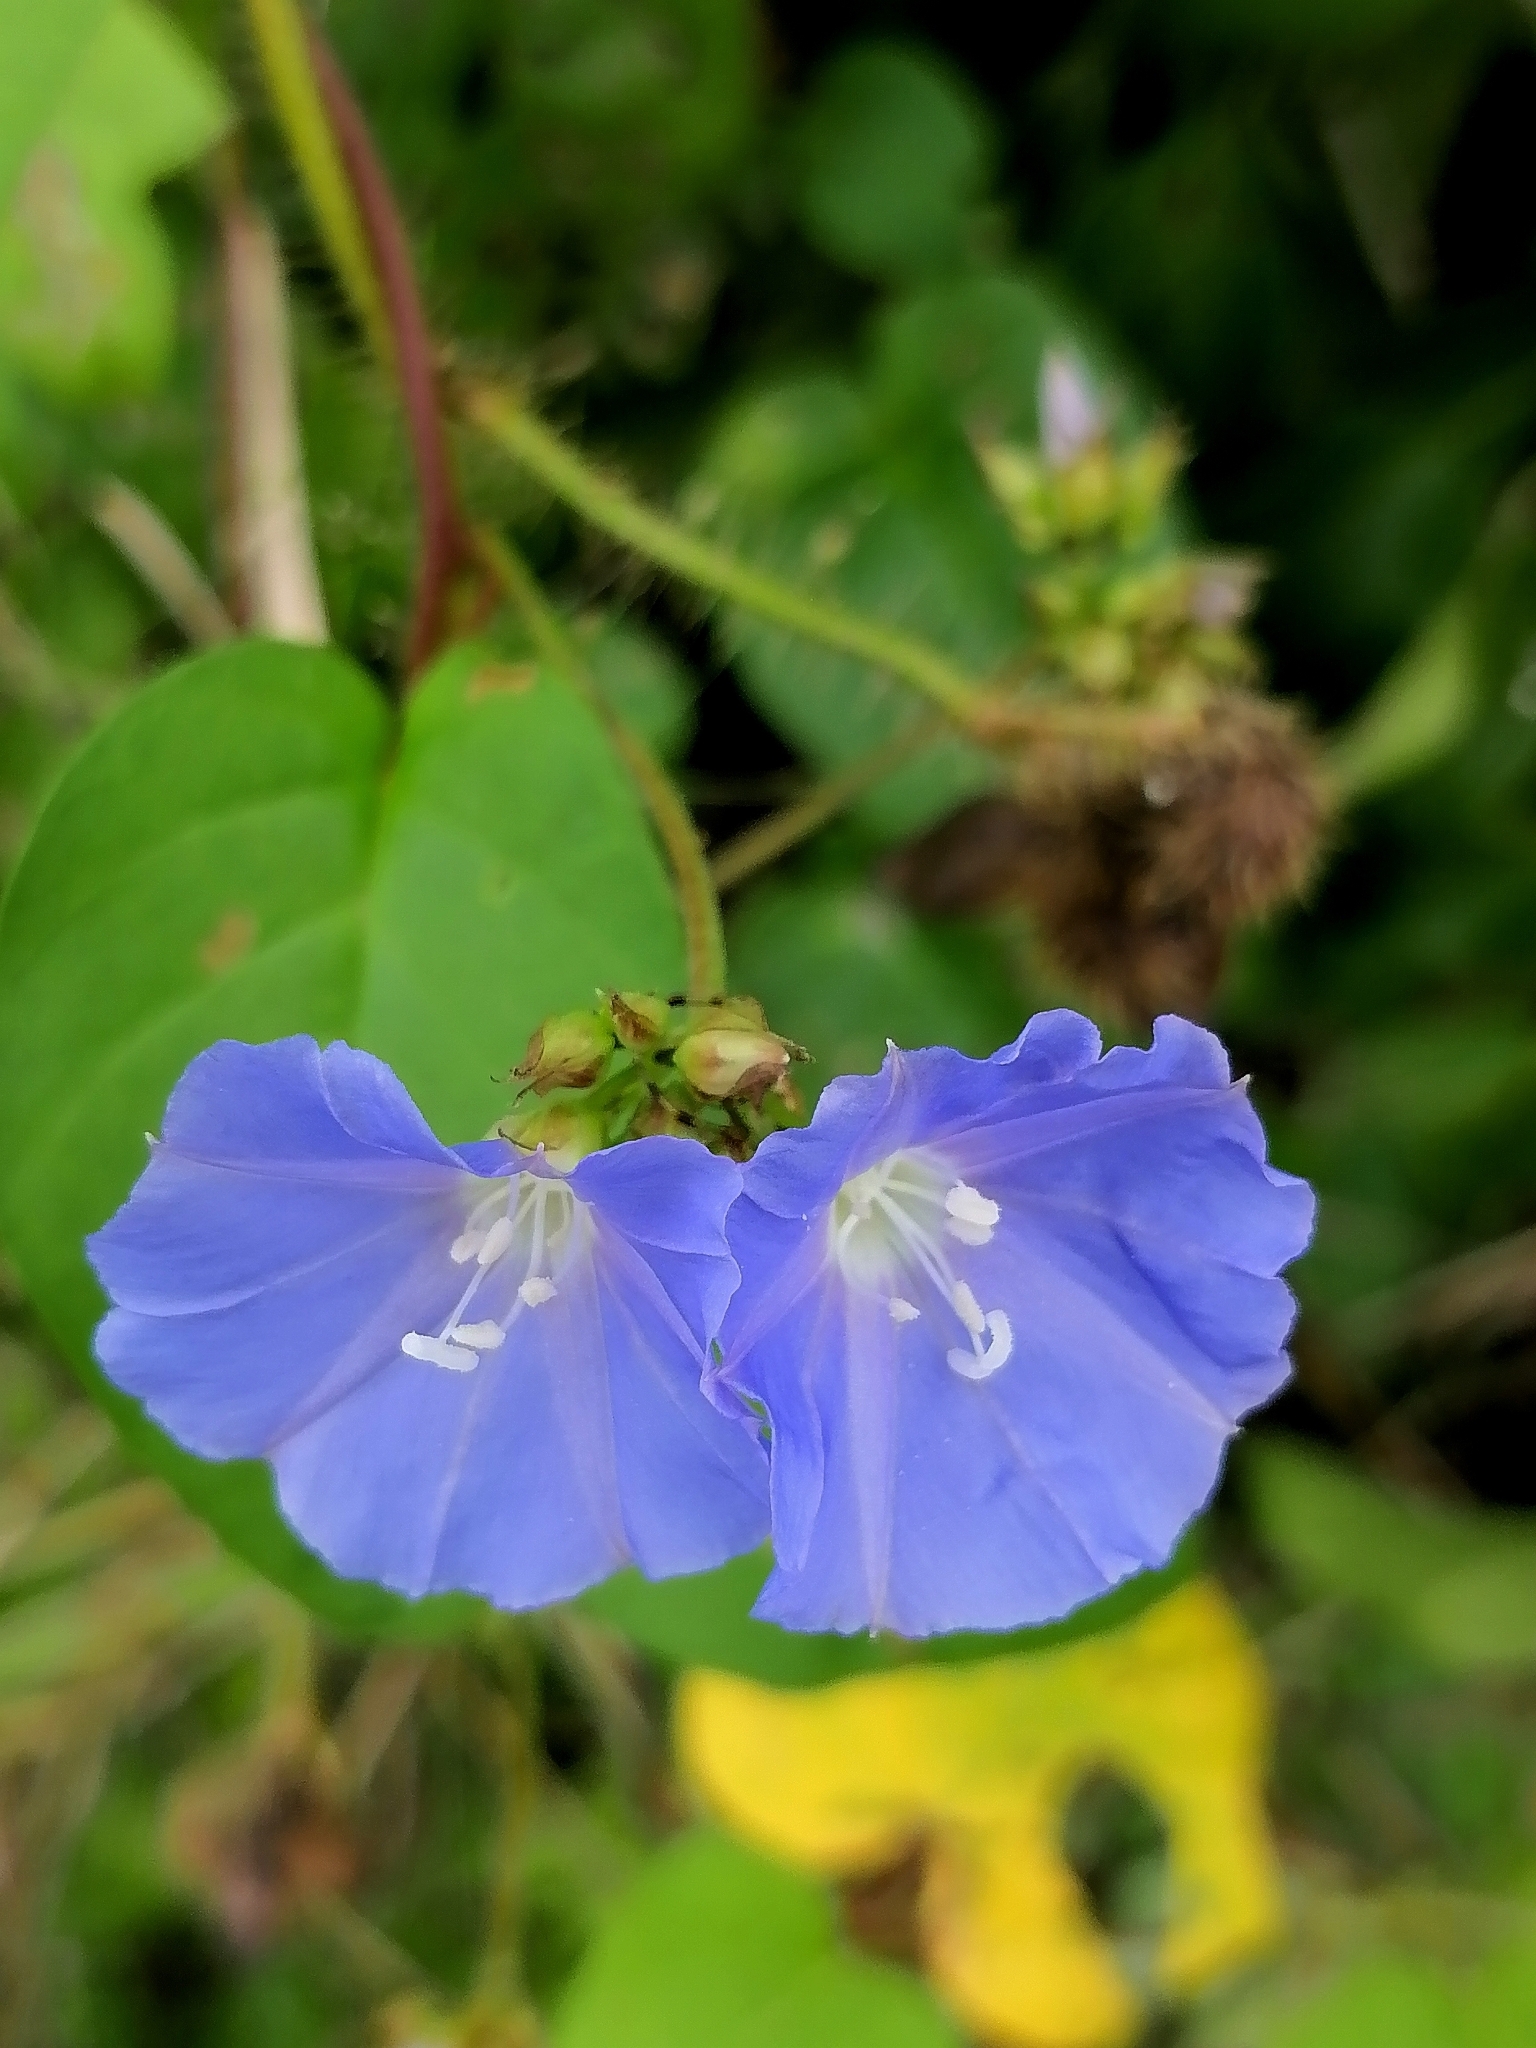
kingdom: Plantae
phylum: Tracheophyta
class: Magnoliopsida
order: Solanales
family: Convolvulaceae
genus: Jacquemontia
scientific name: Jacquemontia pentanthos
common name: Skyblue clustervine
